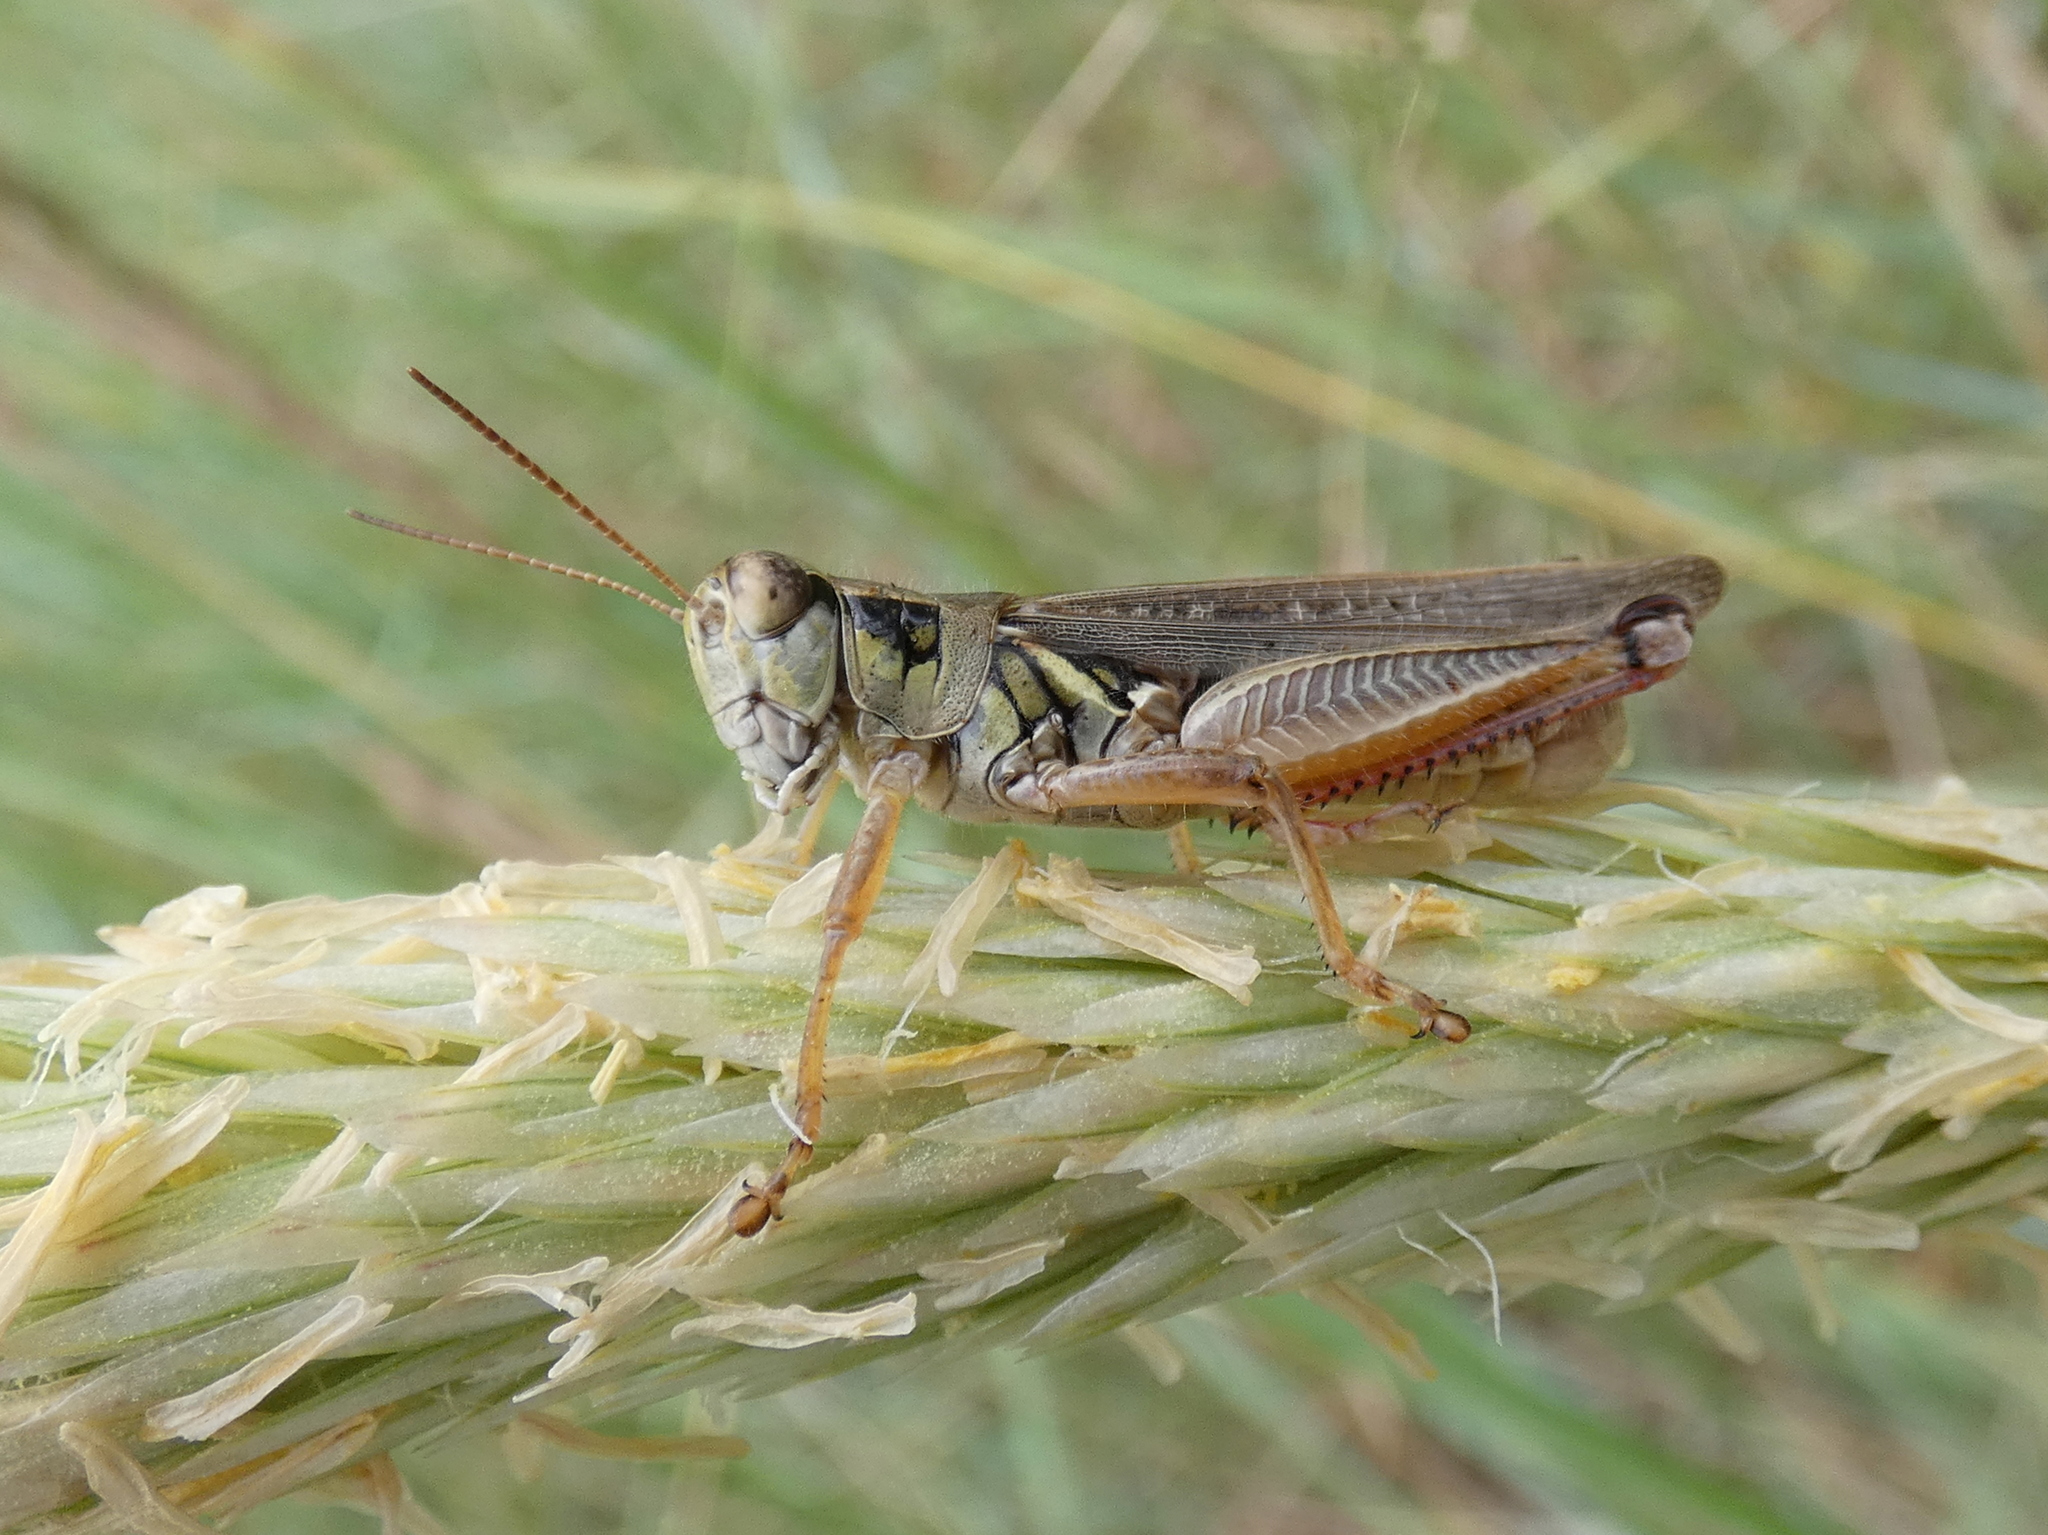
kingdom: Animalia
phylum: Arthropoda
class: Insecta
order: Orthoptera
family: Acrididae
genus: Melanoplus
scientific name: Melanoplus femurrubrum
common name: Red-legged grasshopper
